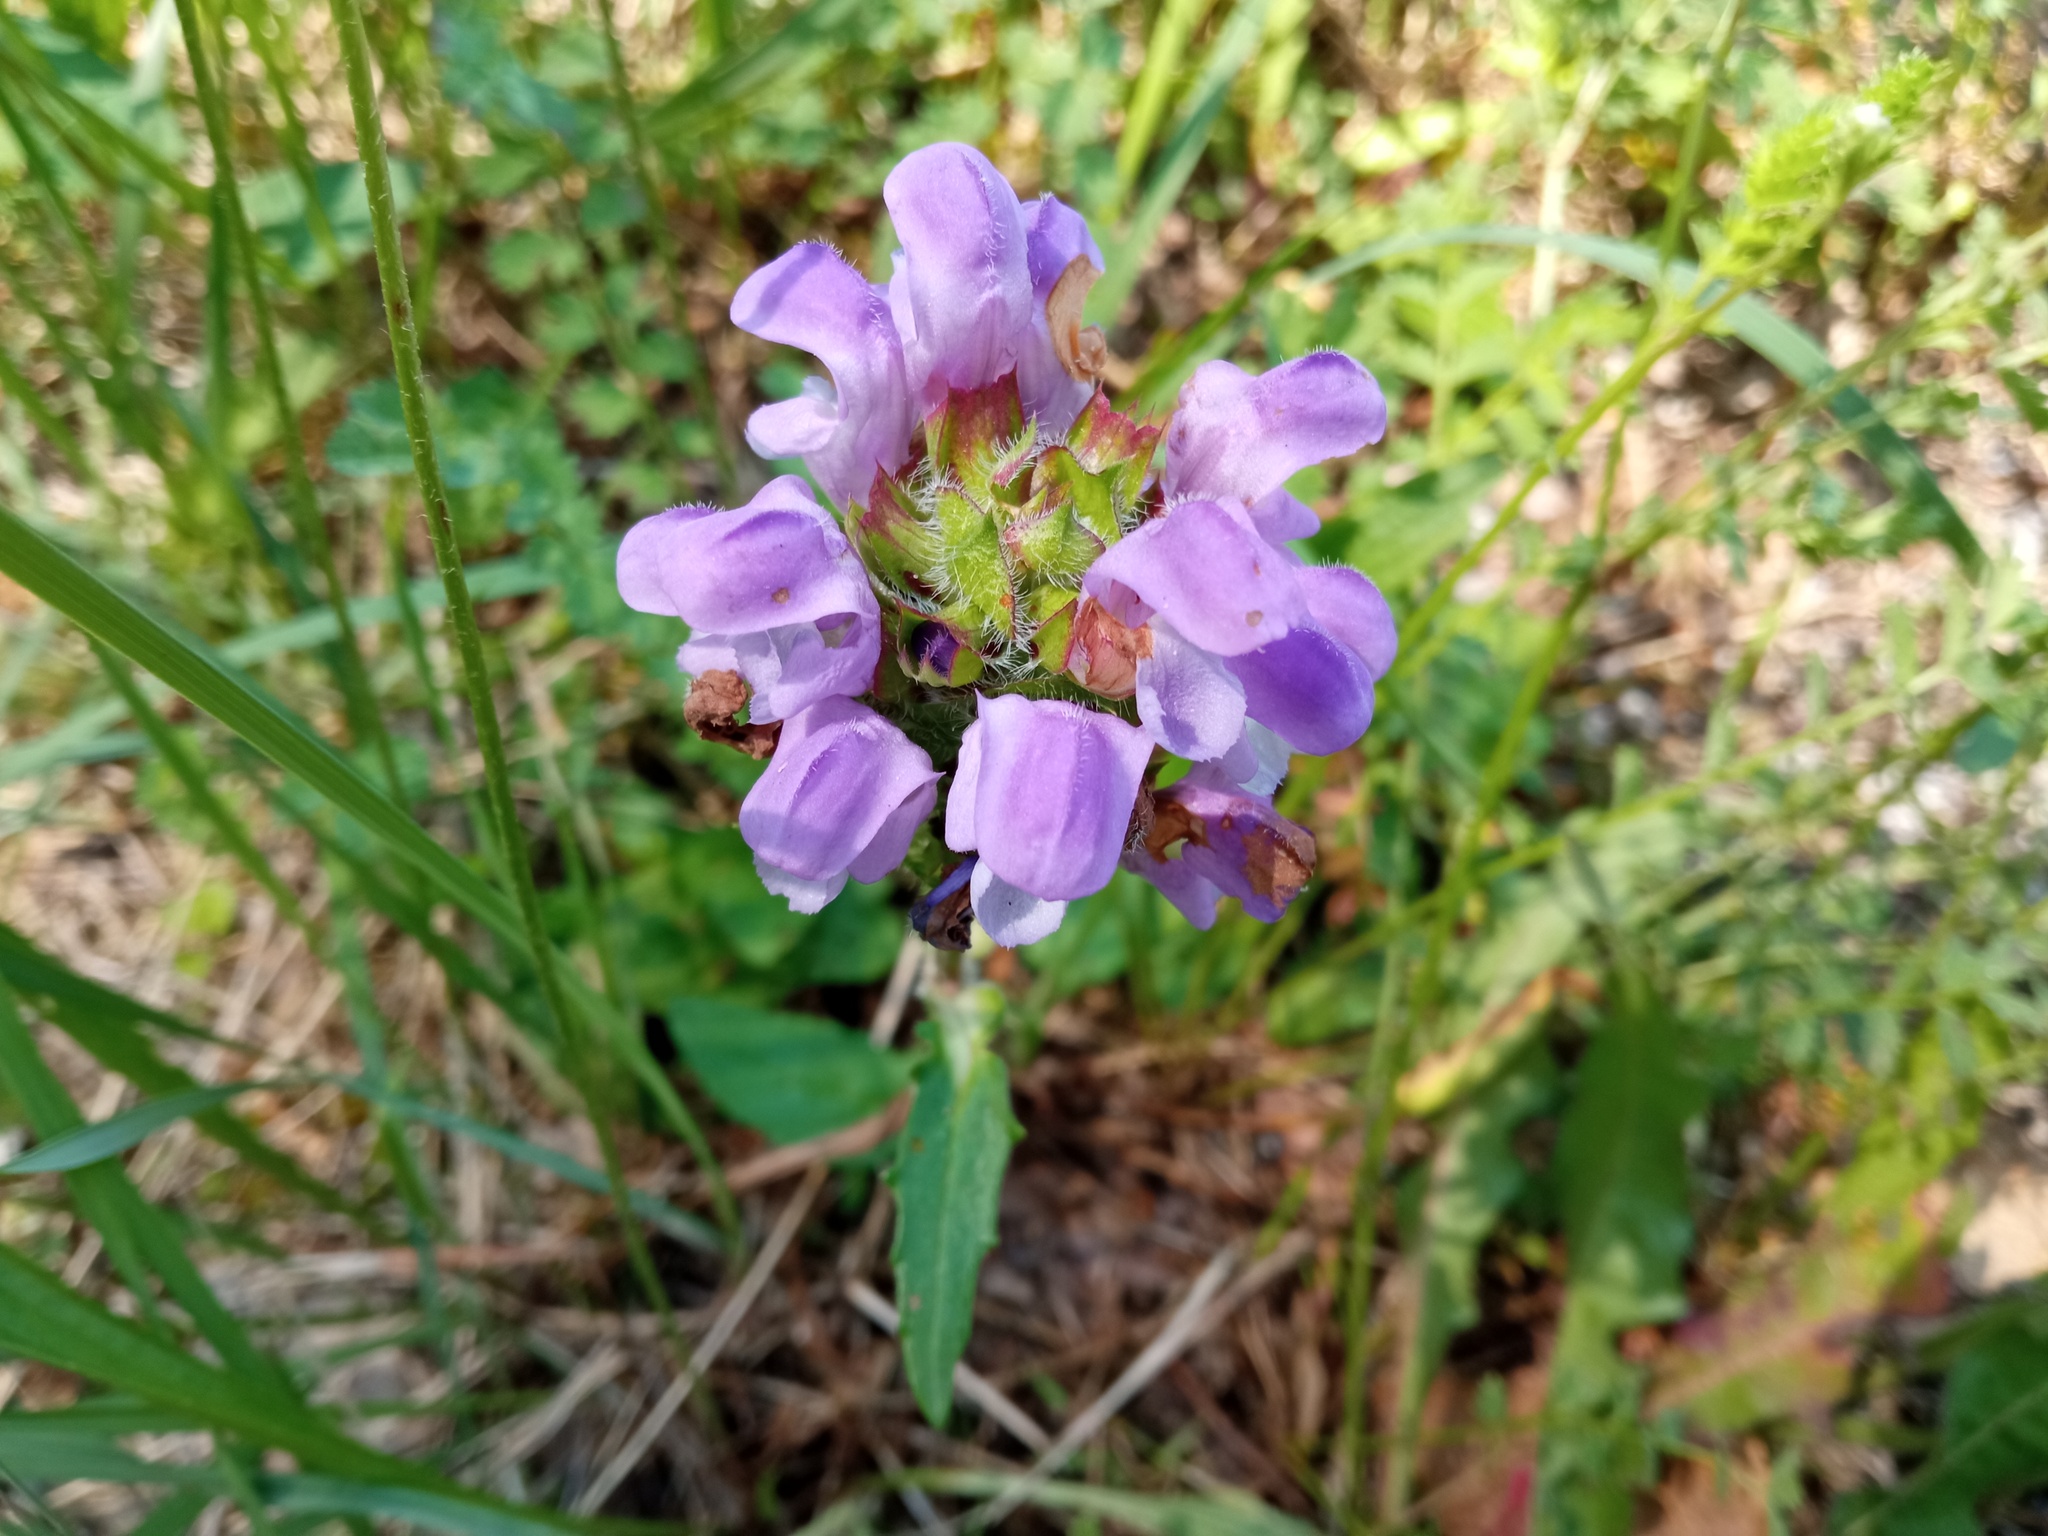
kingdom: Plantae
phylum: Tracheophyta
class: Magnoliopsida
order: Lamiales
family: Lamiaceae
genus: Prunella
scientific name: Prunella grandiflora
